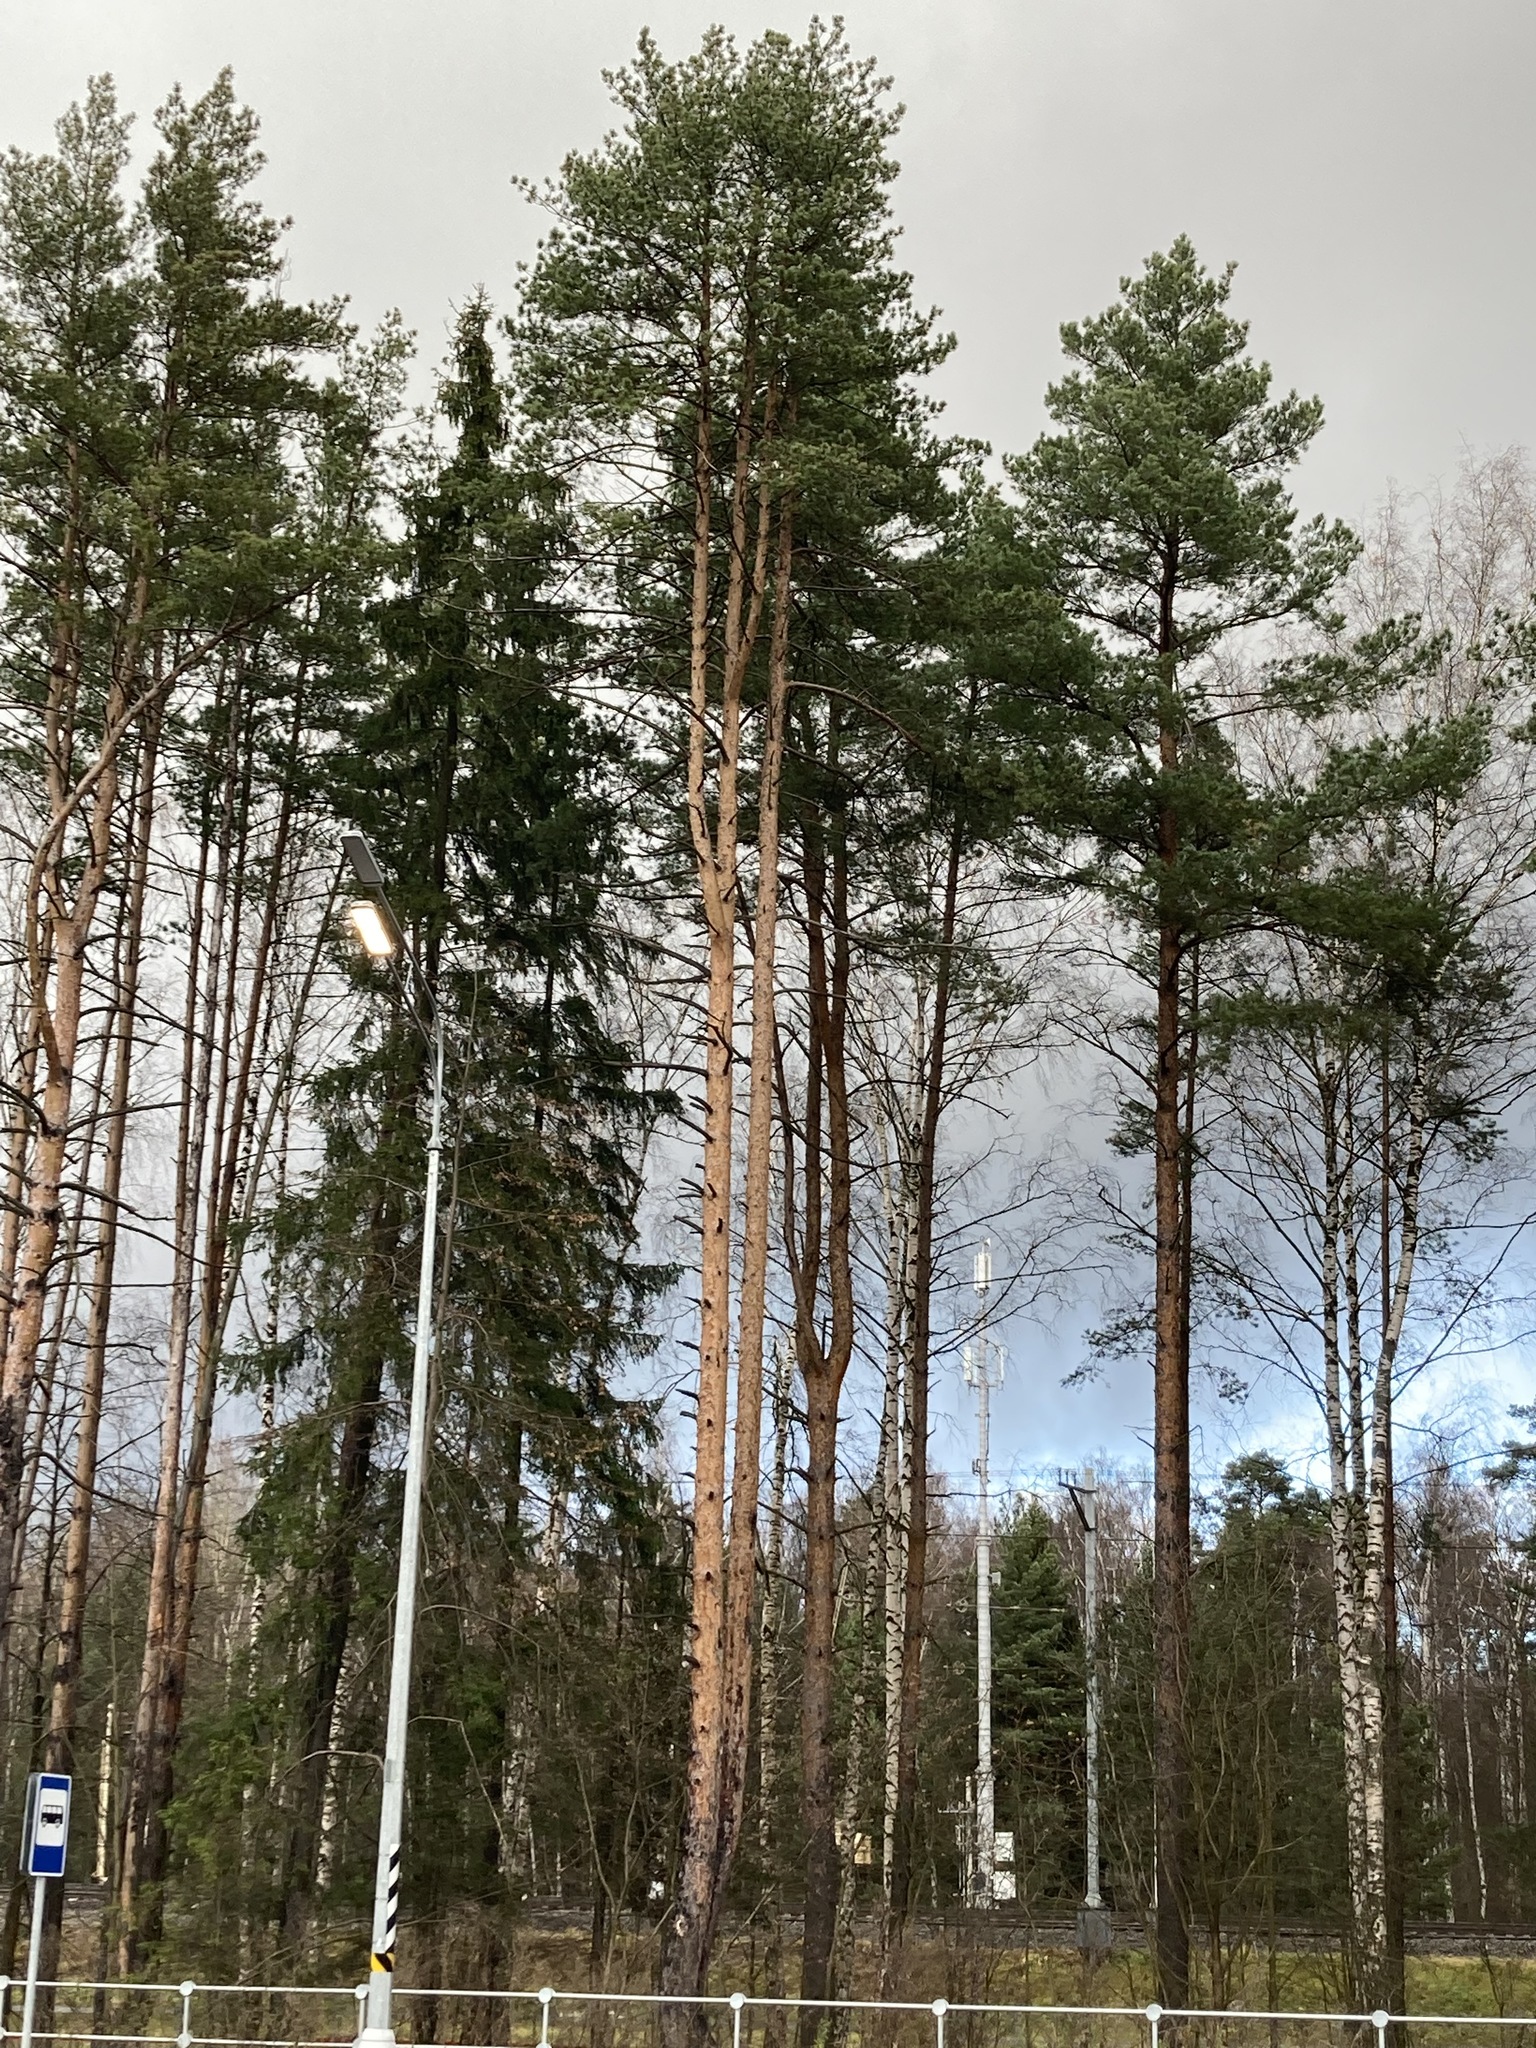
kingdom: Plantae
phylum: Tracheophyta
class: Pinopsida
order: Pinales
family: Pinaceae
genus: Pinus
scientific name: Pinus sylvestris
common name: Scots pine
